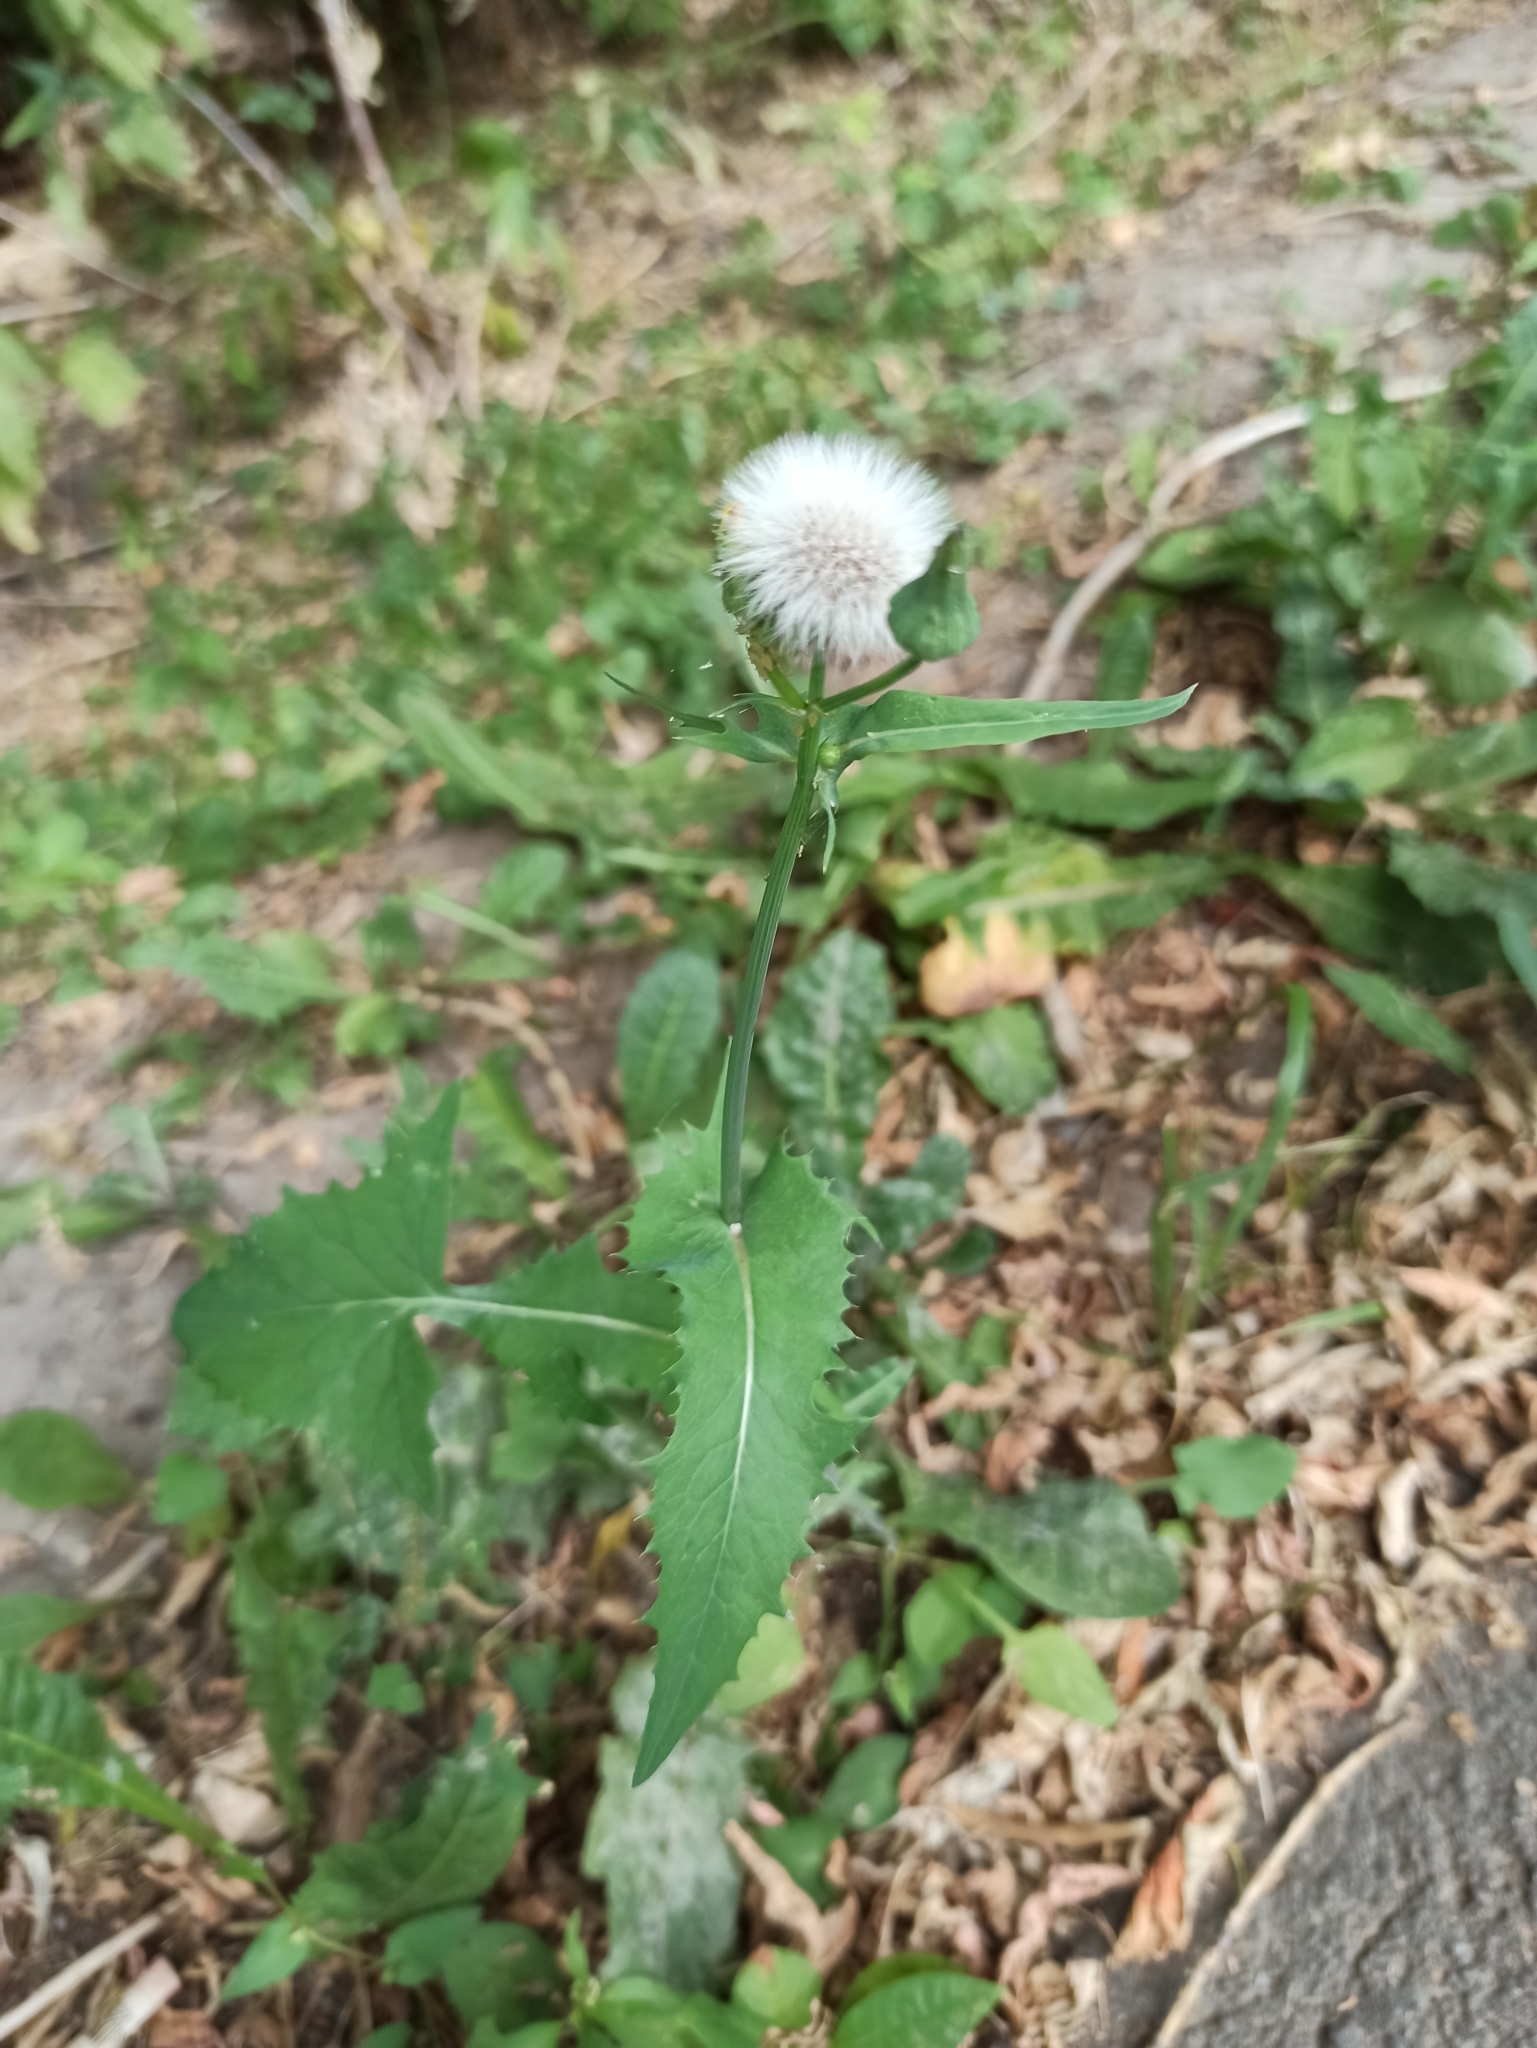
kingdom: Plantae
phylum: Tracheophyta
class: Magnoliopsida
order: Asterales
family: Asteraceae
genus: Sonchus
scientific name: Sonchus oleraceus
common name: Common sowthistle
